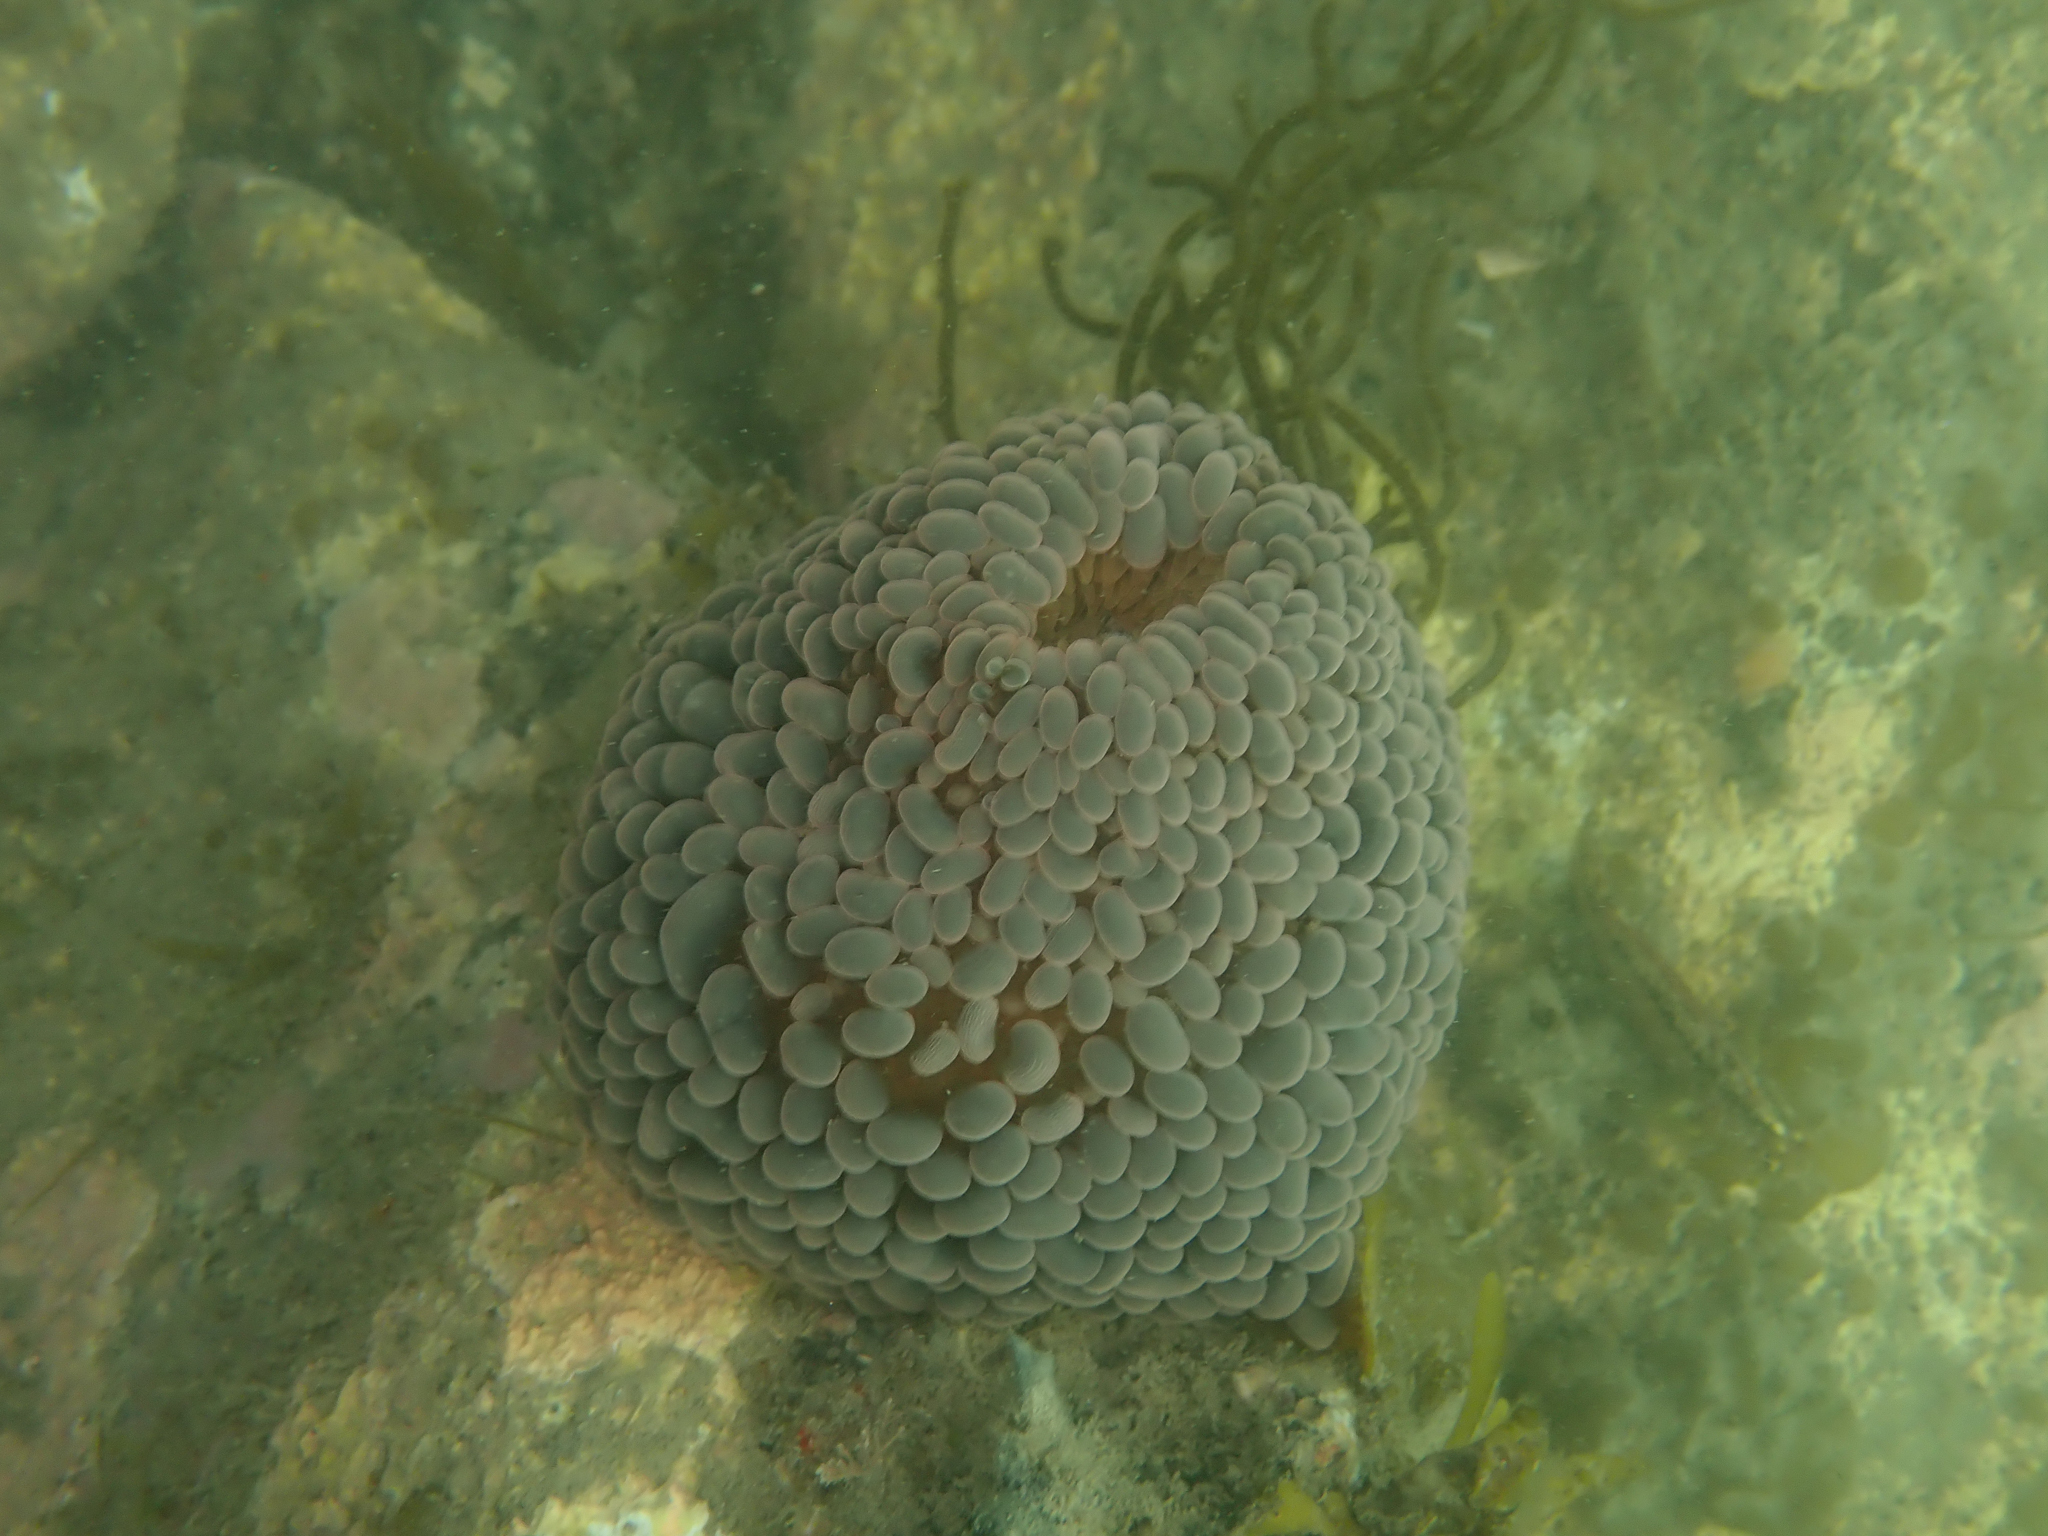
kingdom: Animalia
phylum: Cnidaria
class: Anthozoa
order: Actiniaria
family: Actiniidae
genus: Phlyctenactis
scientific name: Phlyctenactis tuberculosa
